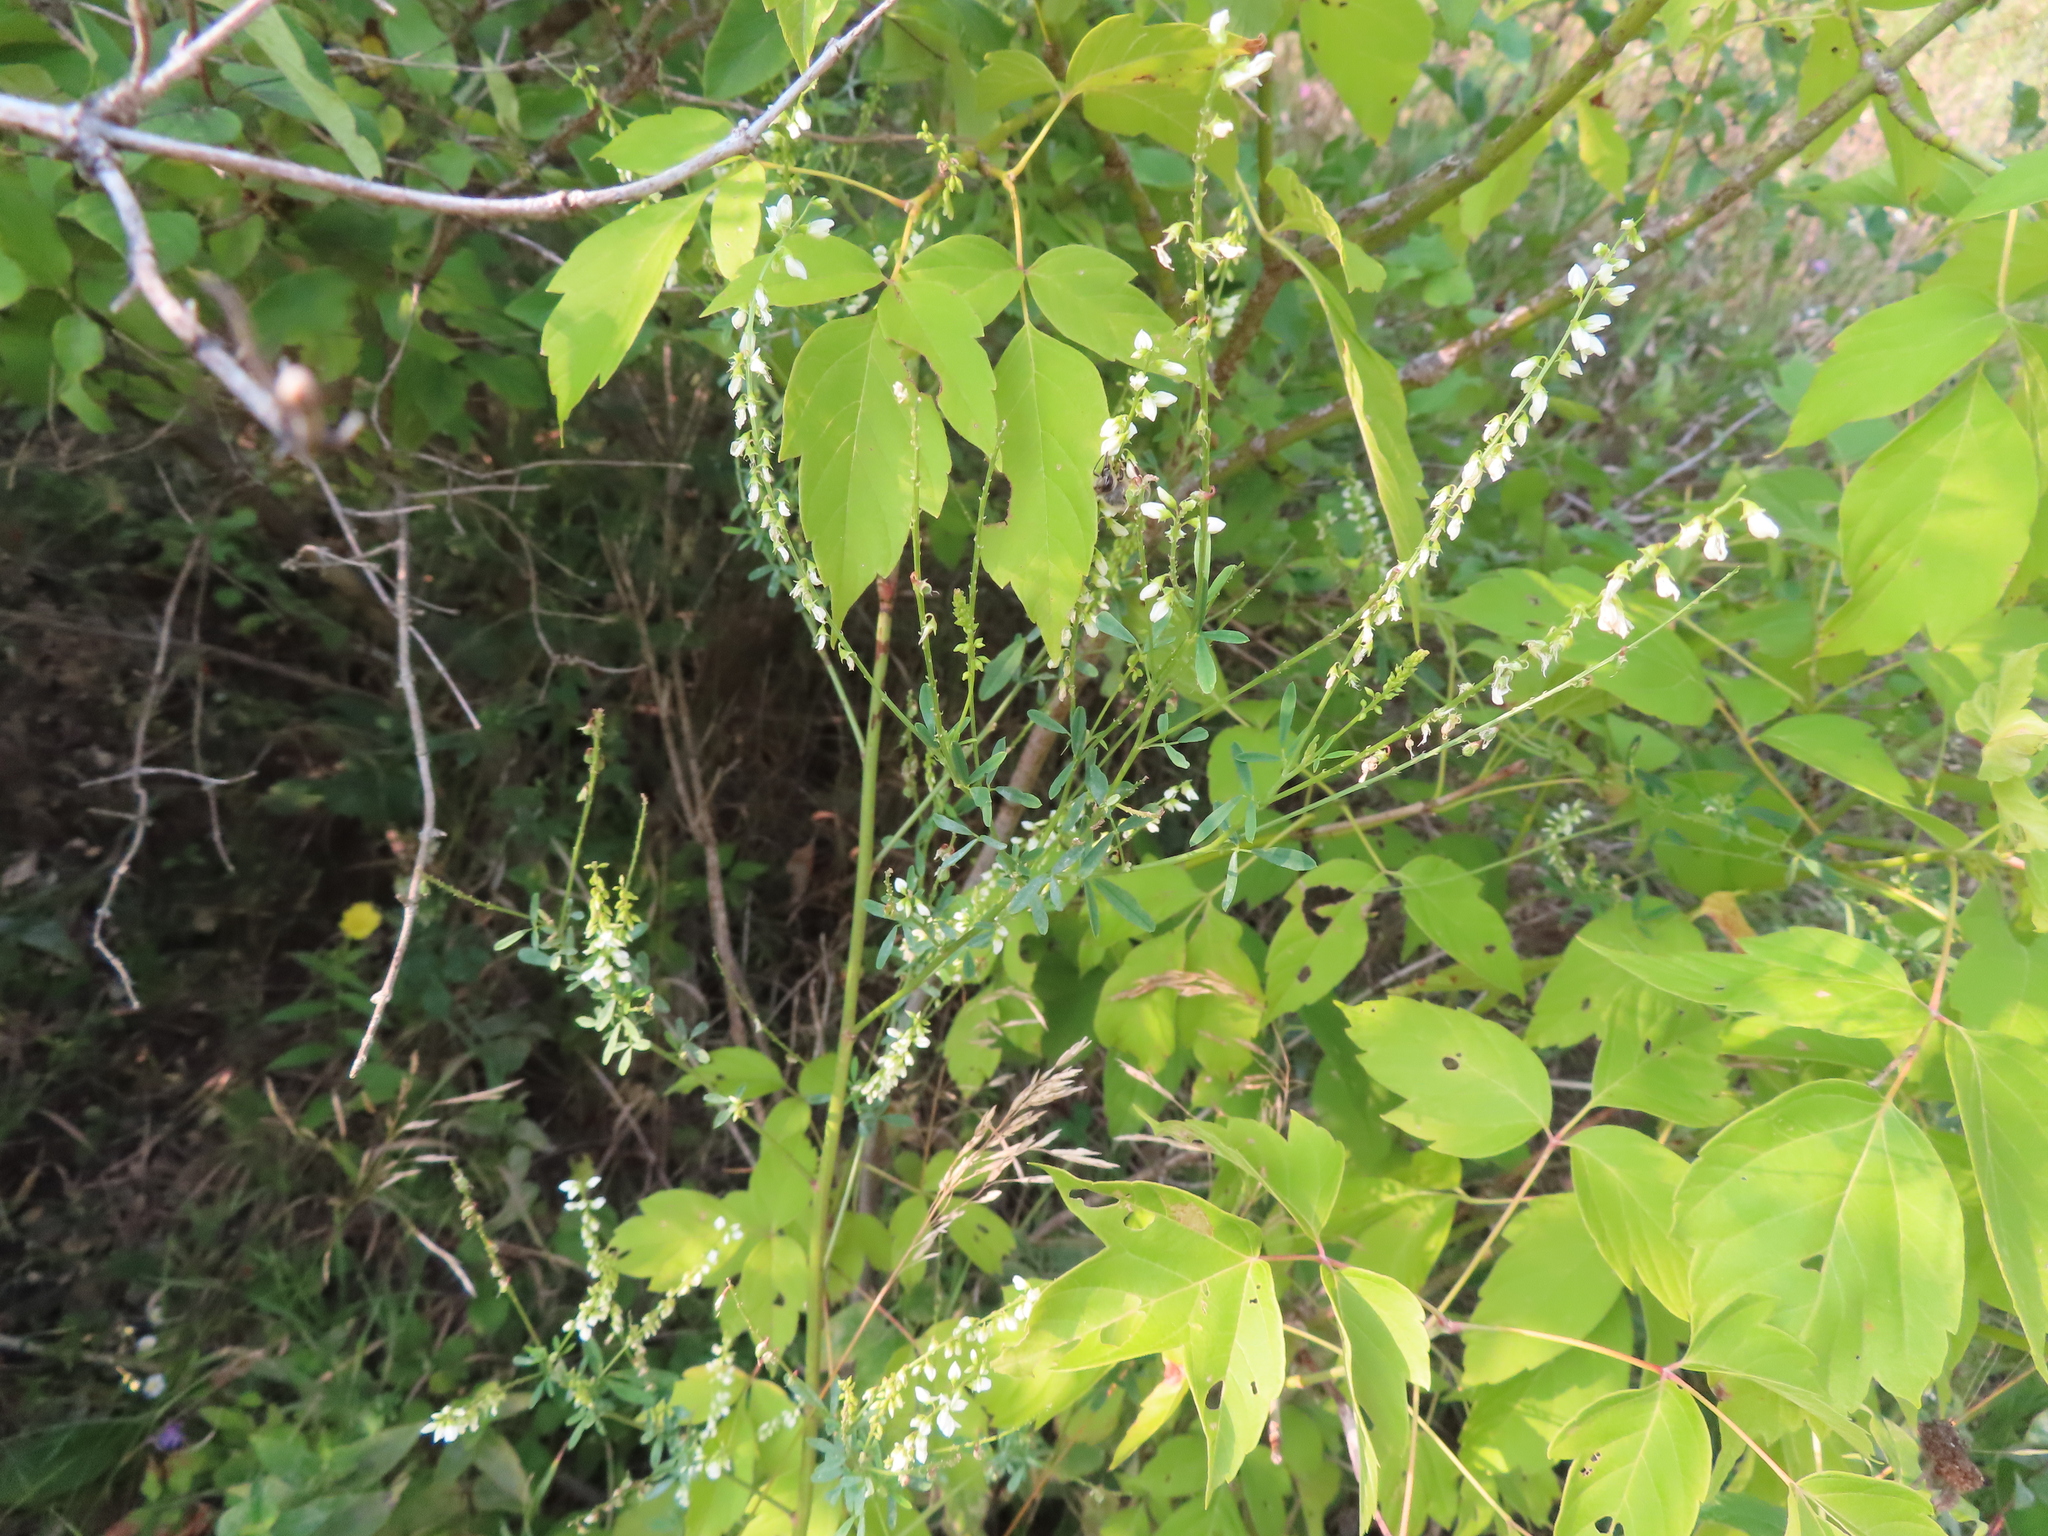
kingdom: Plantae
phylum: Tracheophyta
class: Magnoliopsida
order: Fabales
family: Fabaceae
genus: Melilotus
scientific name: Melilotus albus
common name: White melilot
